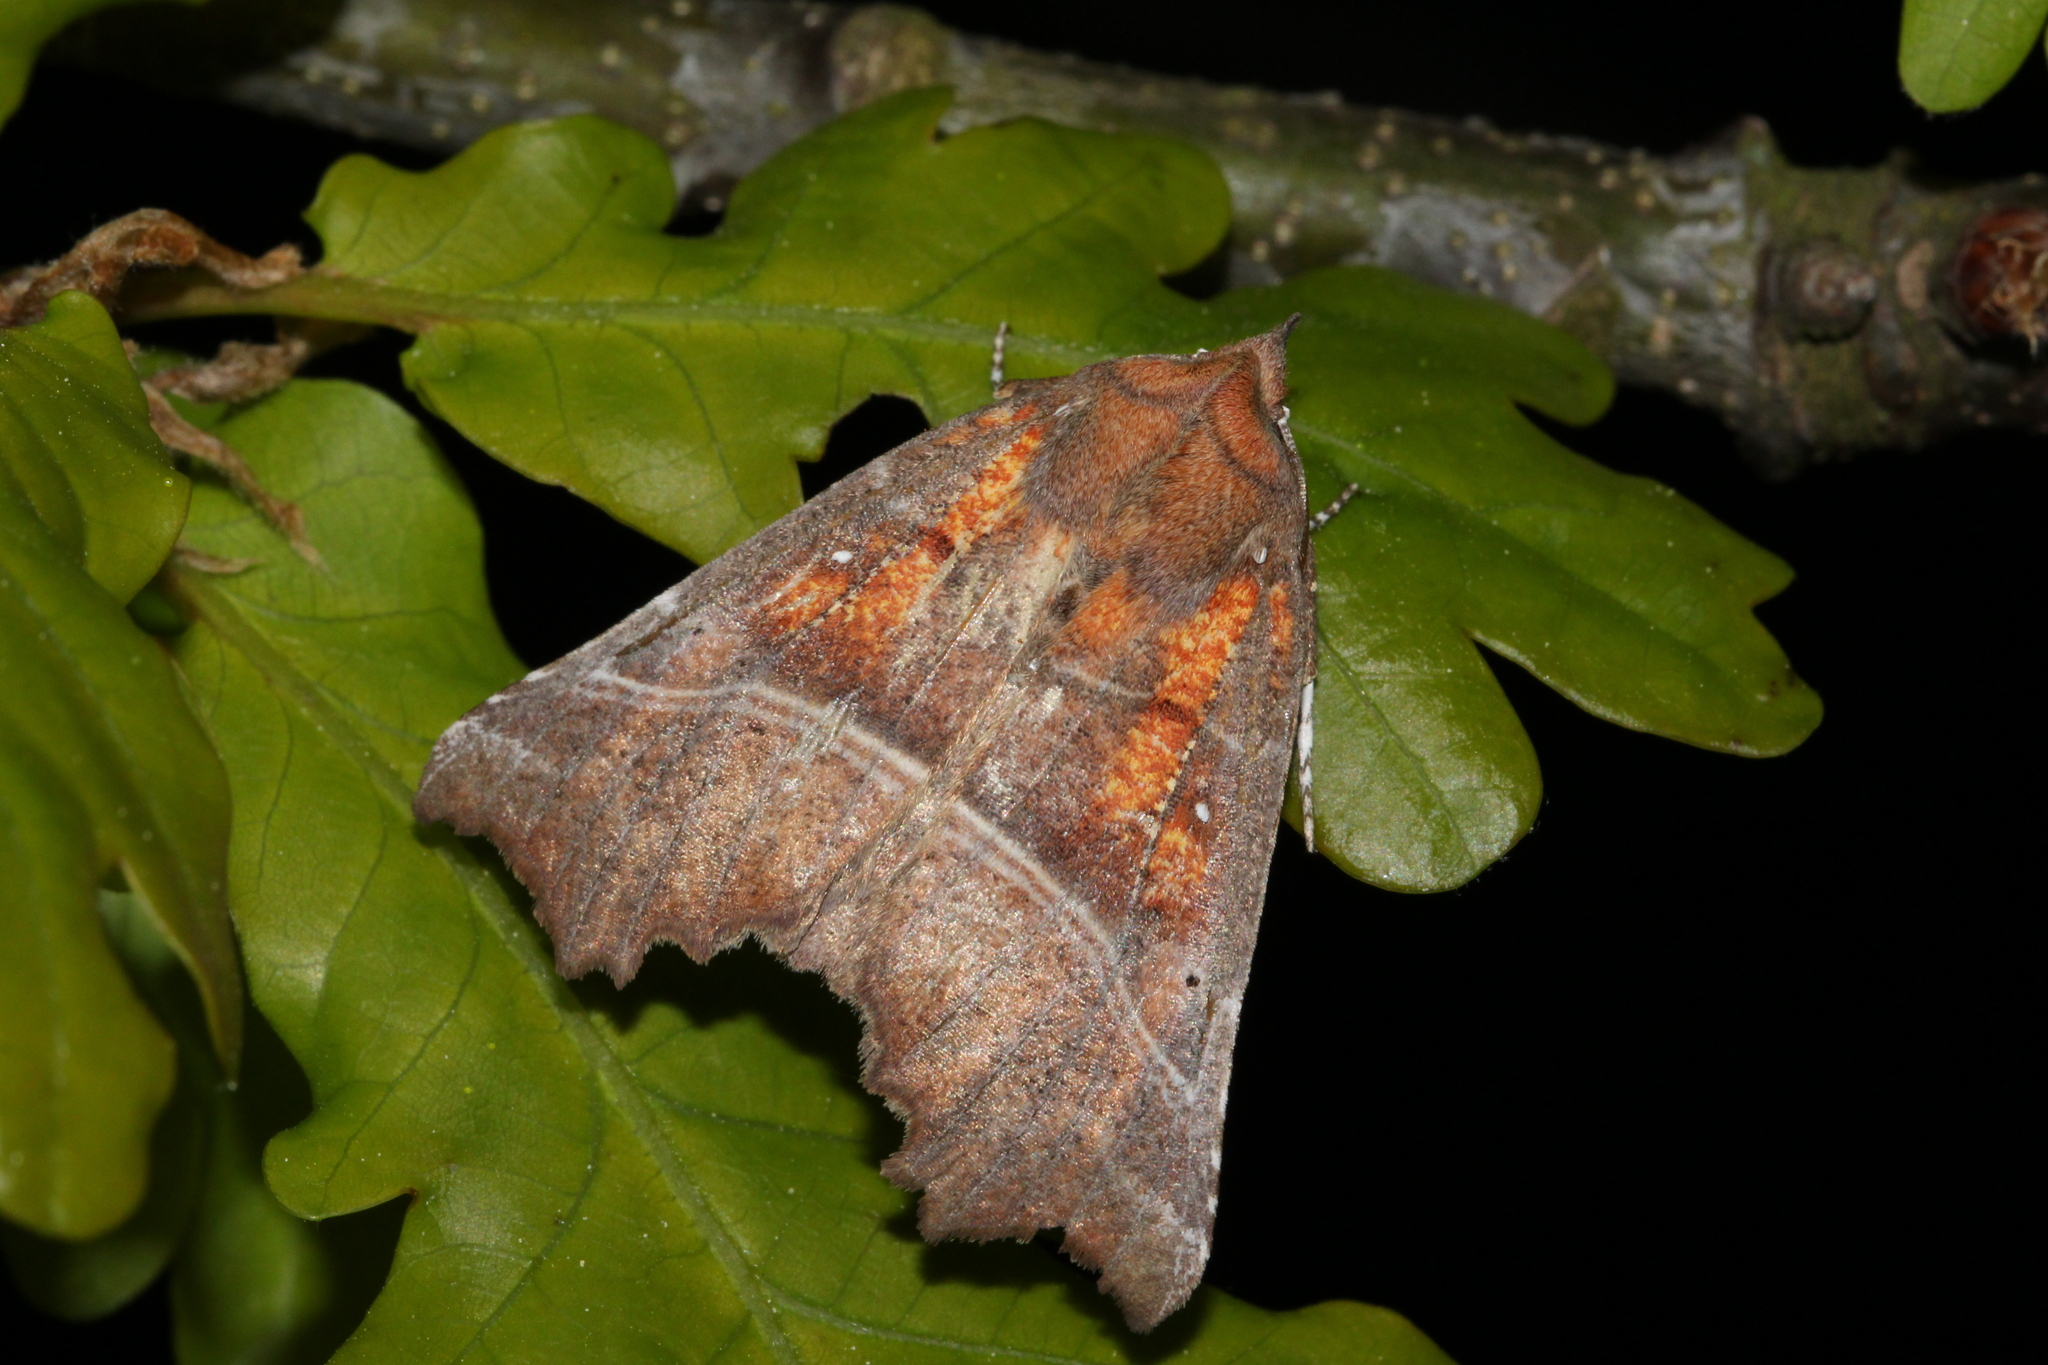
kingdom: Animalia
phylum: Arthropoda
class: Insecta
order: Lepidoptera
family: Erebidae
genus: Scoliopteryx
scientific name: Scoliopteryx libatrix
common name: Herald
